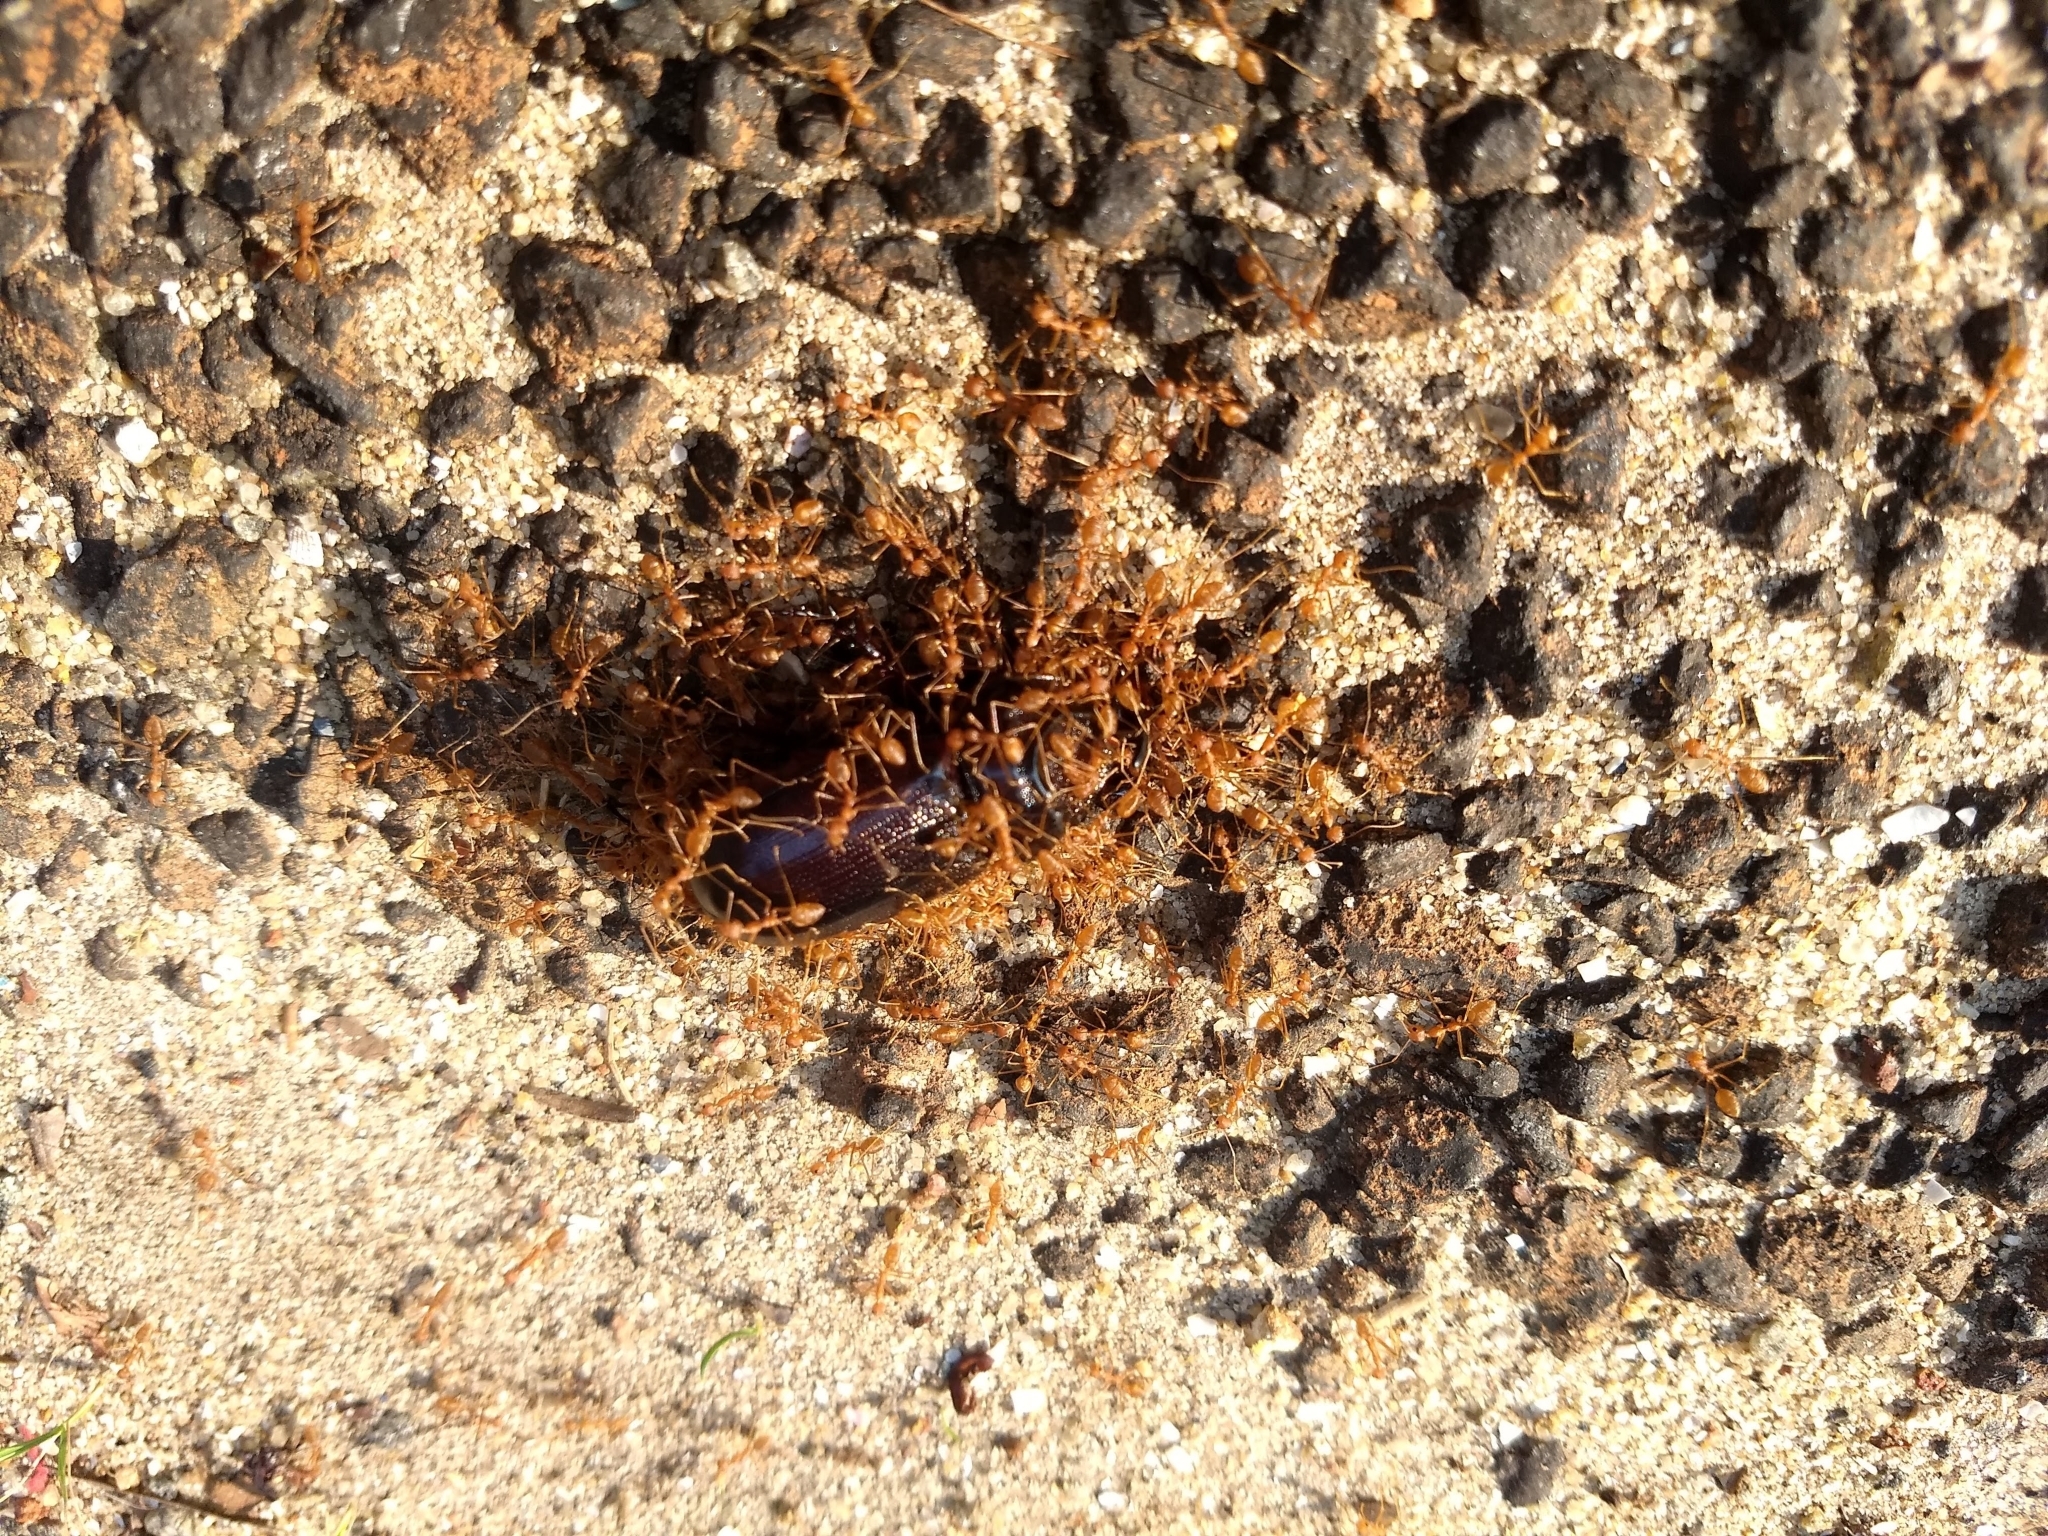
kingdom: Animalia
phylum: Arthropoda
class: Insecta
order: Hymenoptera
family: Formicidae
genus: Oecophylla
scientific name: Oecophylla smaragdina
